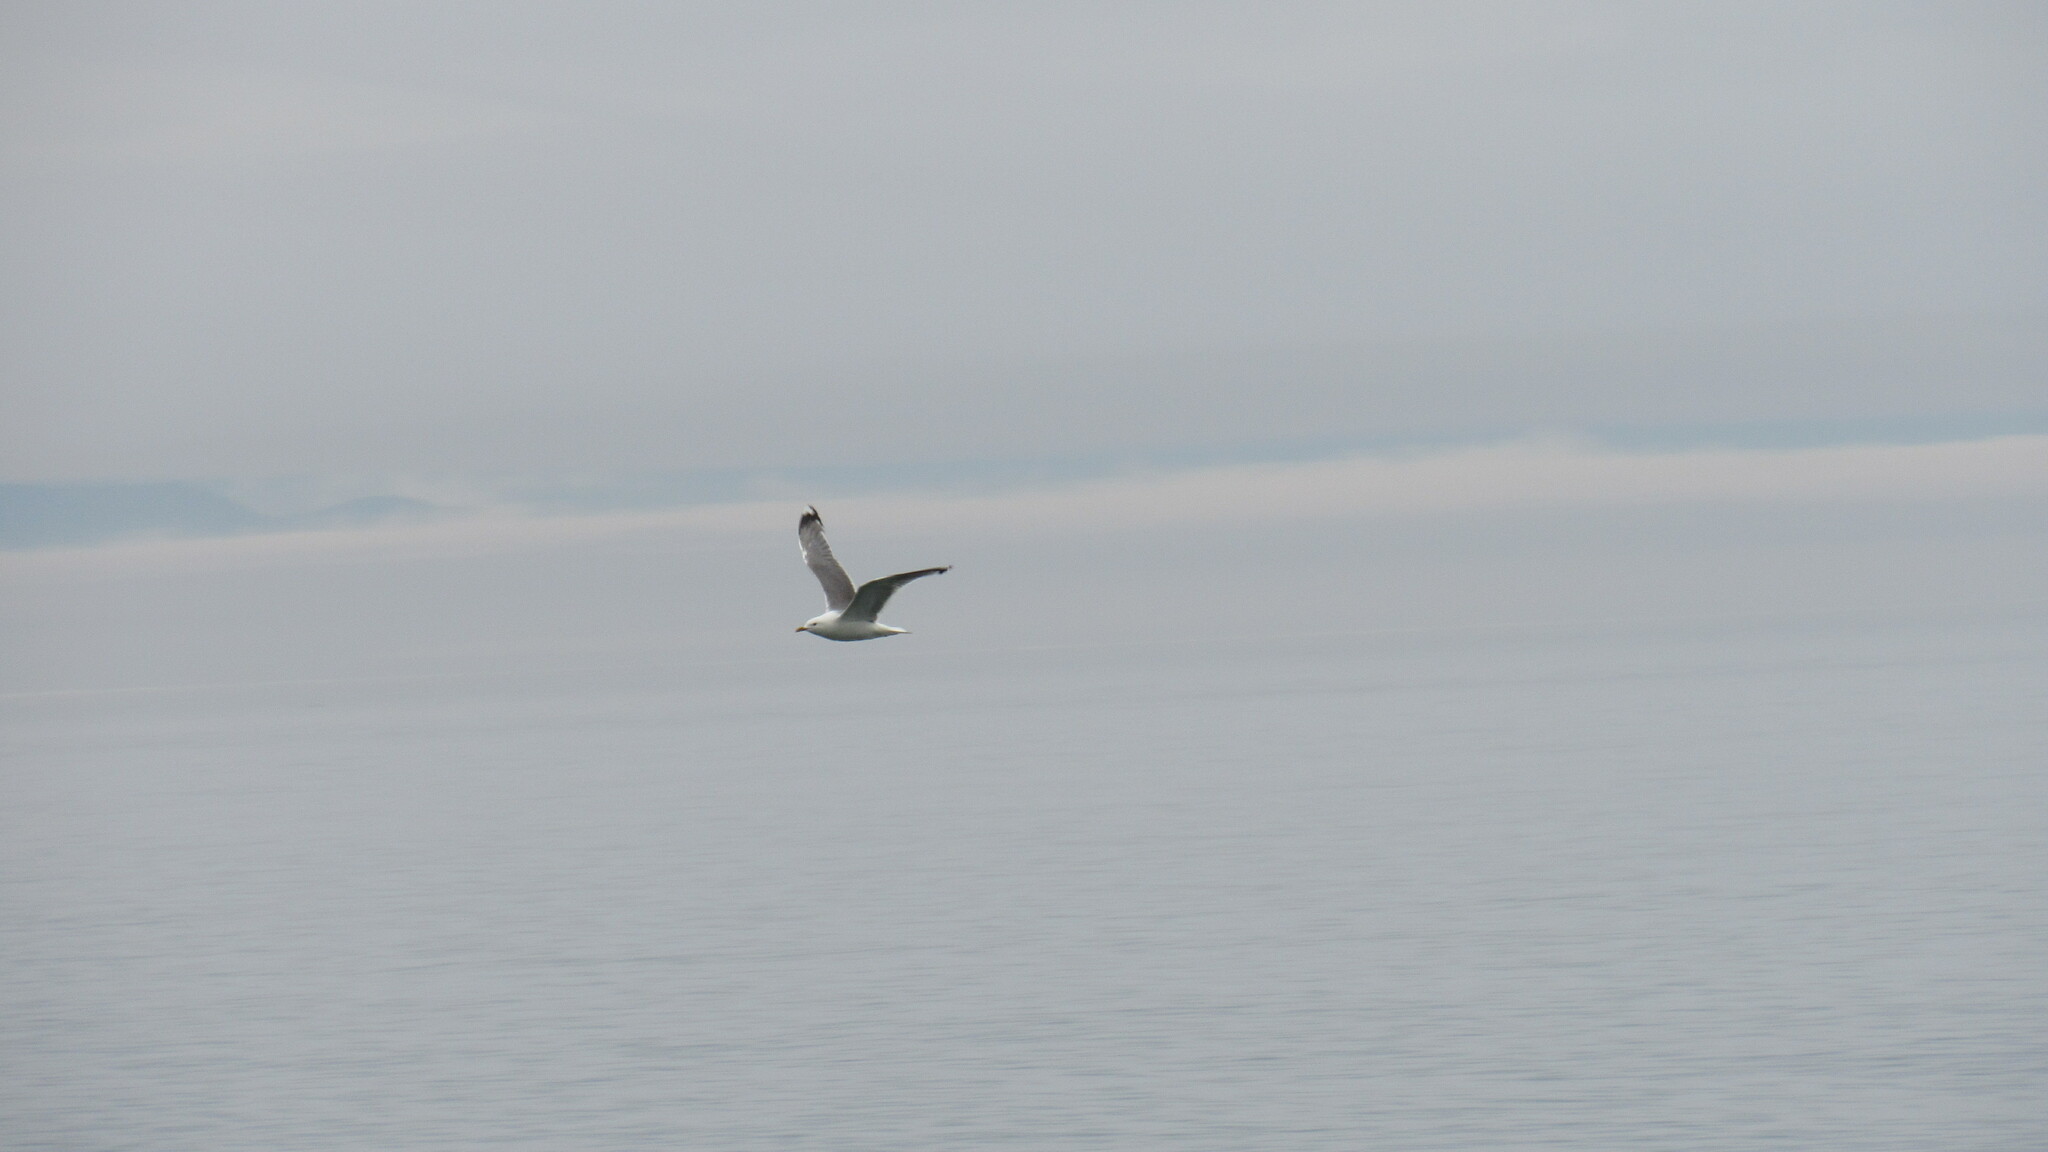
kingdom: Animalia
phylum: Chordata
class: Aves
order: Charadriiformes
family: Laridae
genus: Larus
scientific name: Larus canus
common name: Mew gull
